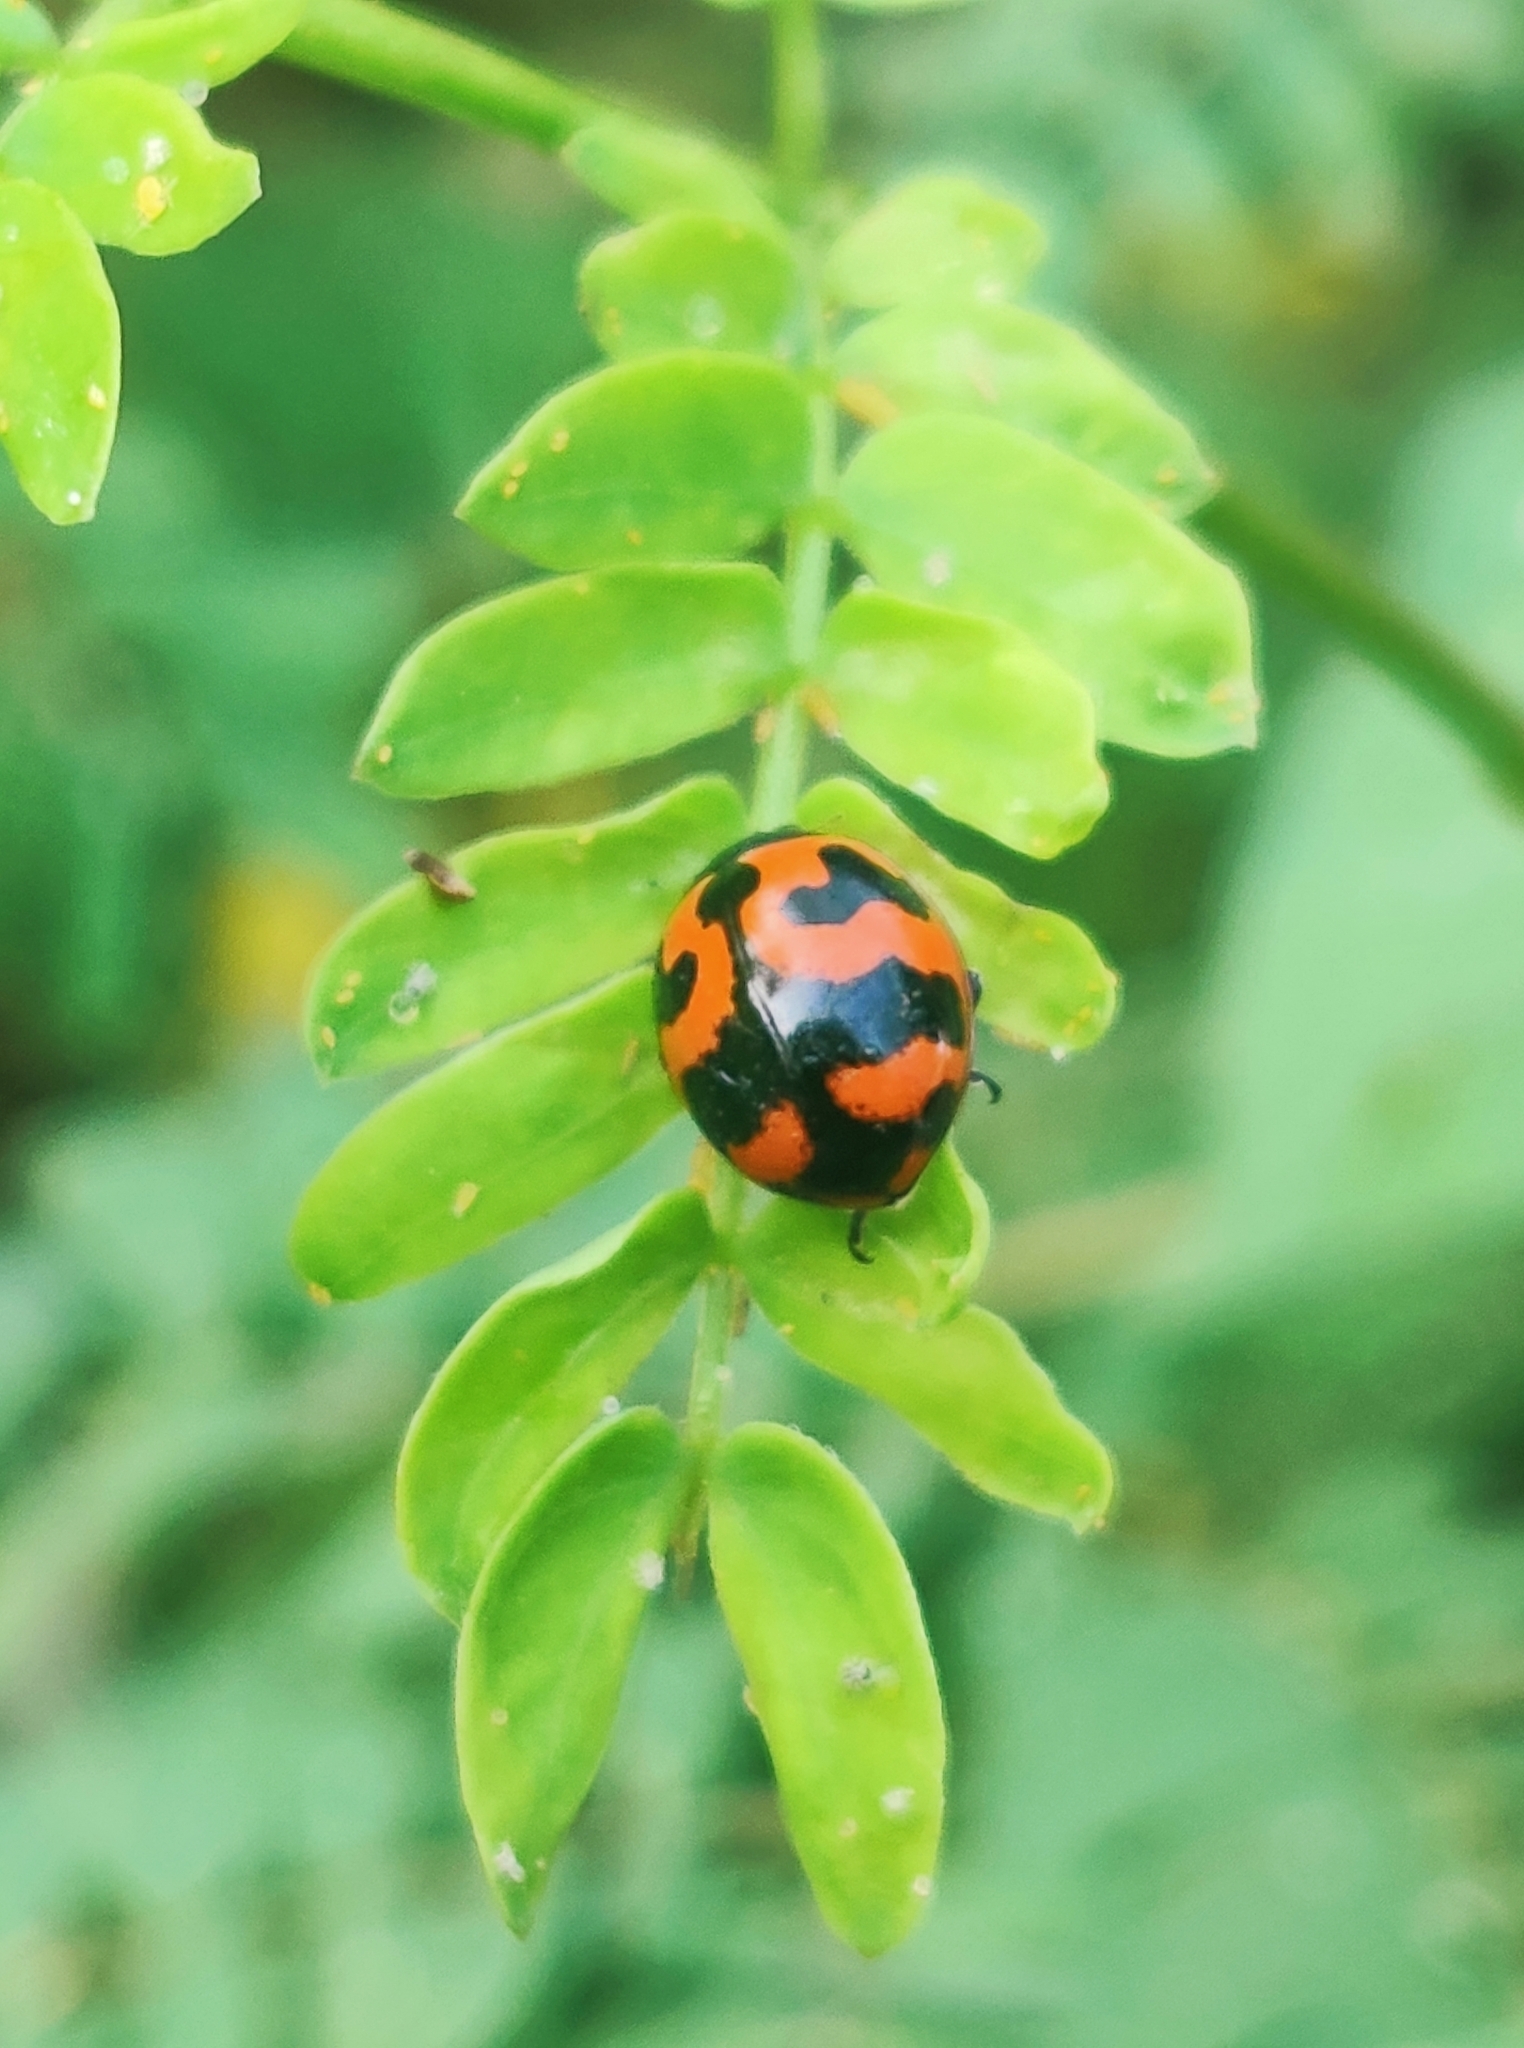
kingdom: Animalia
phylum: Arthropoda
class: Insecta
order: Coleoptera
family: Coccinellidae
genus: Coccinella
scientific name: Coccinella transversalis
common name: Transverse lady beetle
